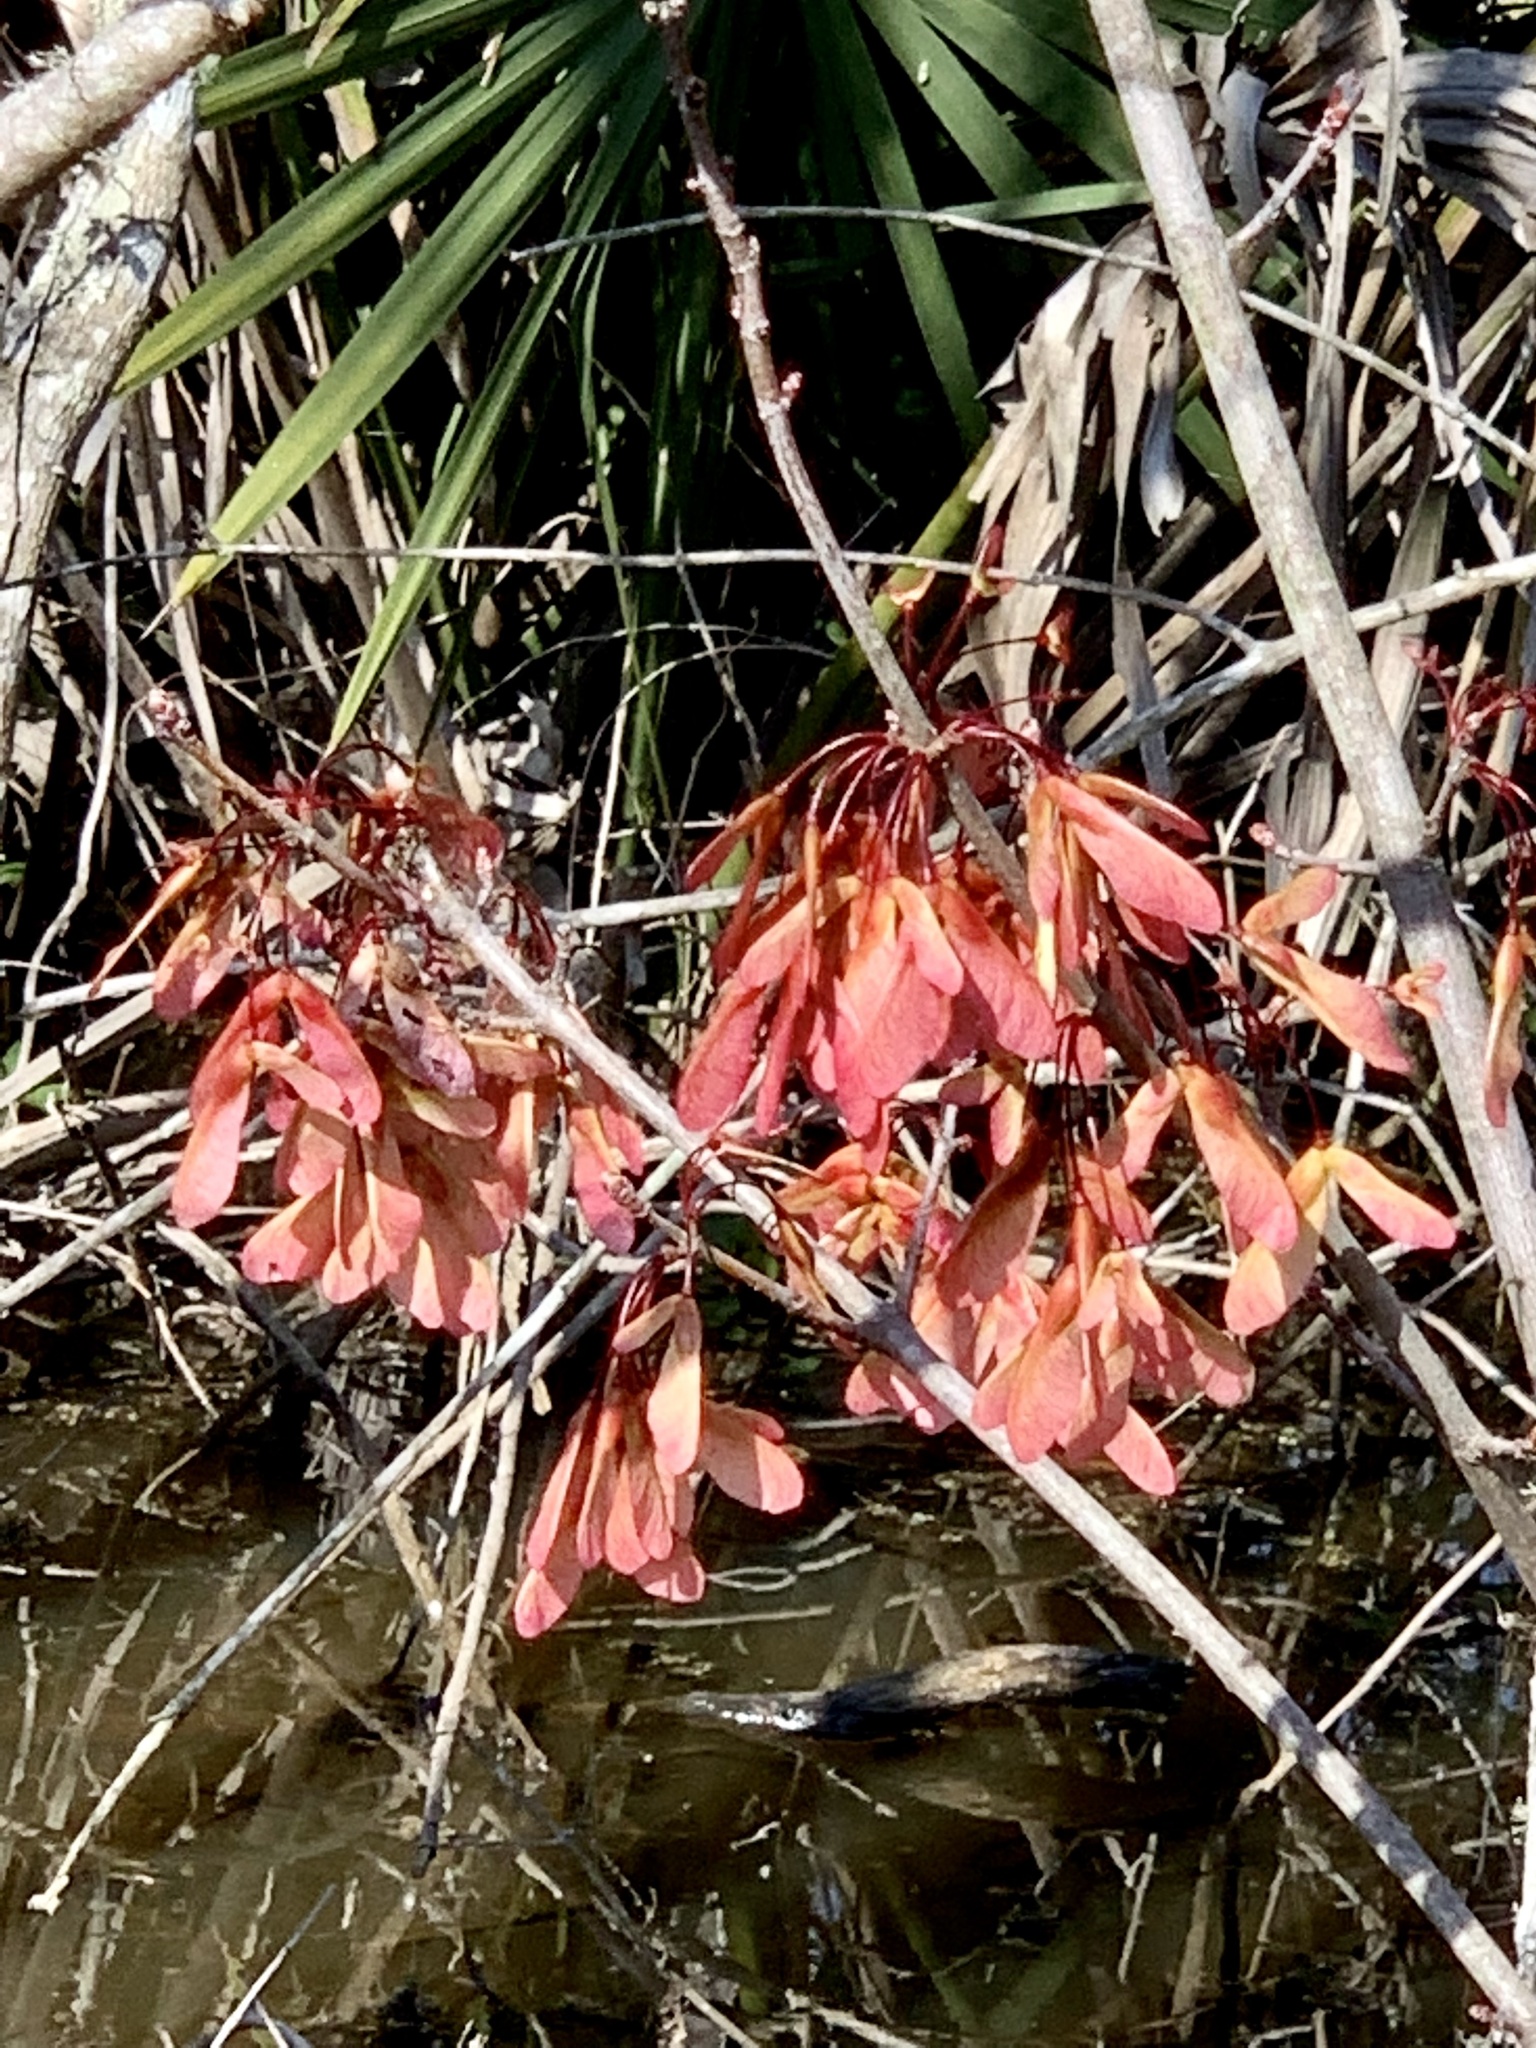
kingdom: Plantae
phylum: Tracheophyta
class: Magnoliopsida
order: Sapindales
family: Sapindaceae
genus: Acer
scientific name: Acer rubrum
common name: Red maple
